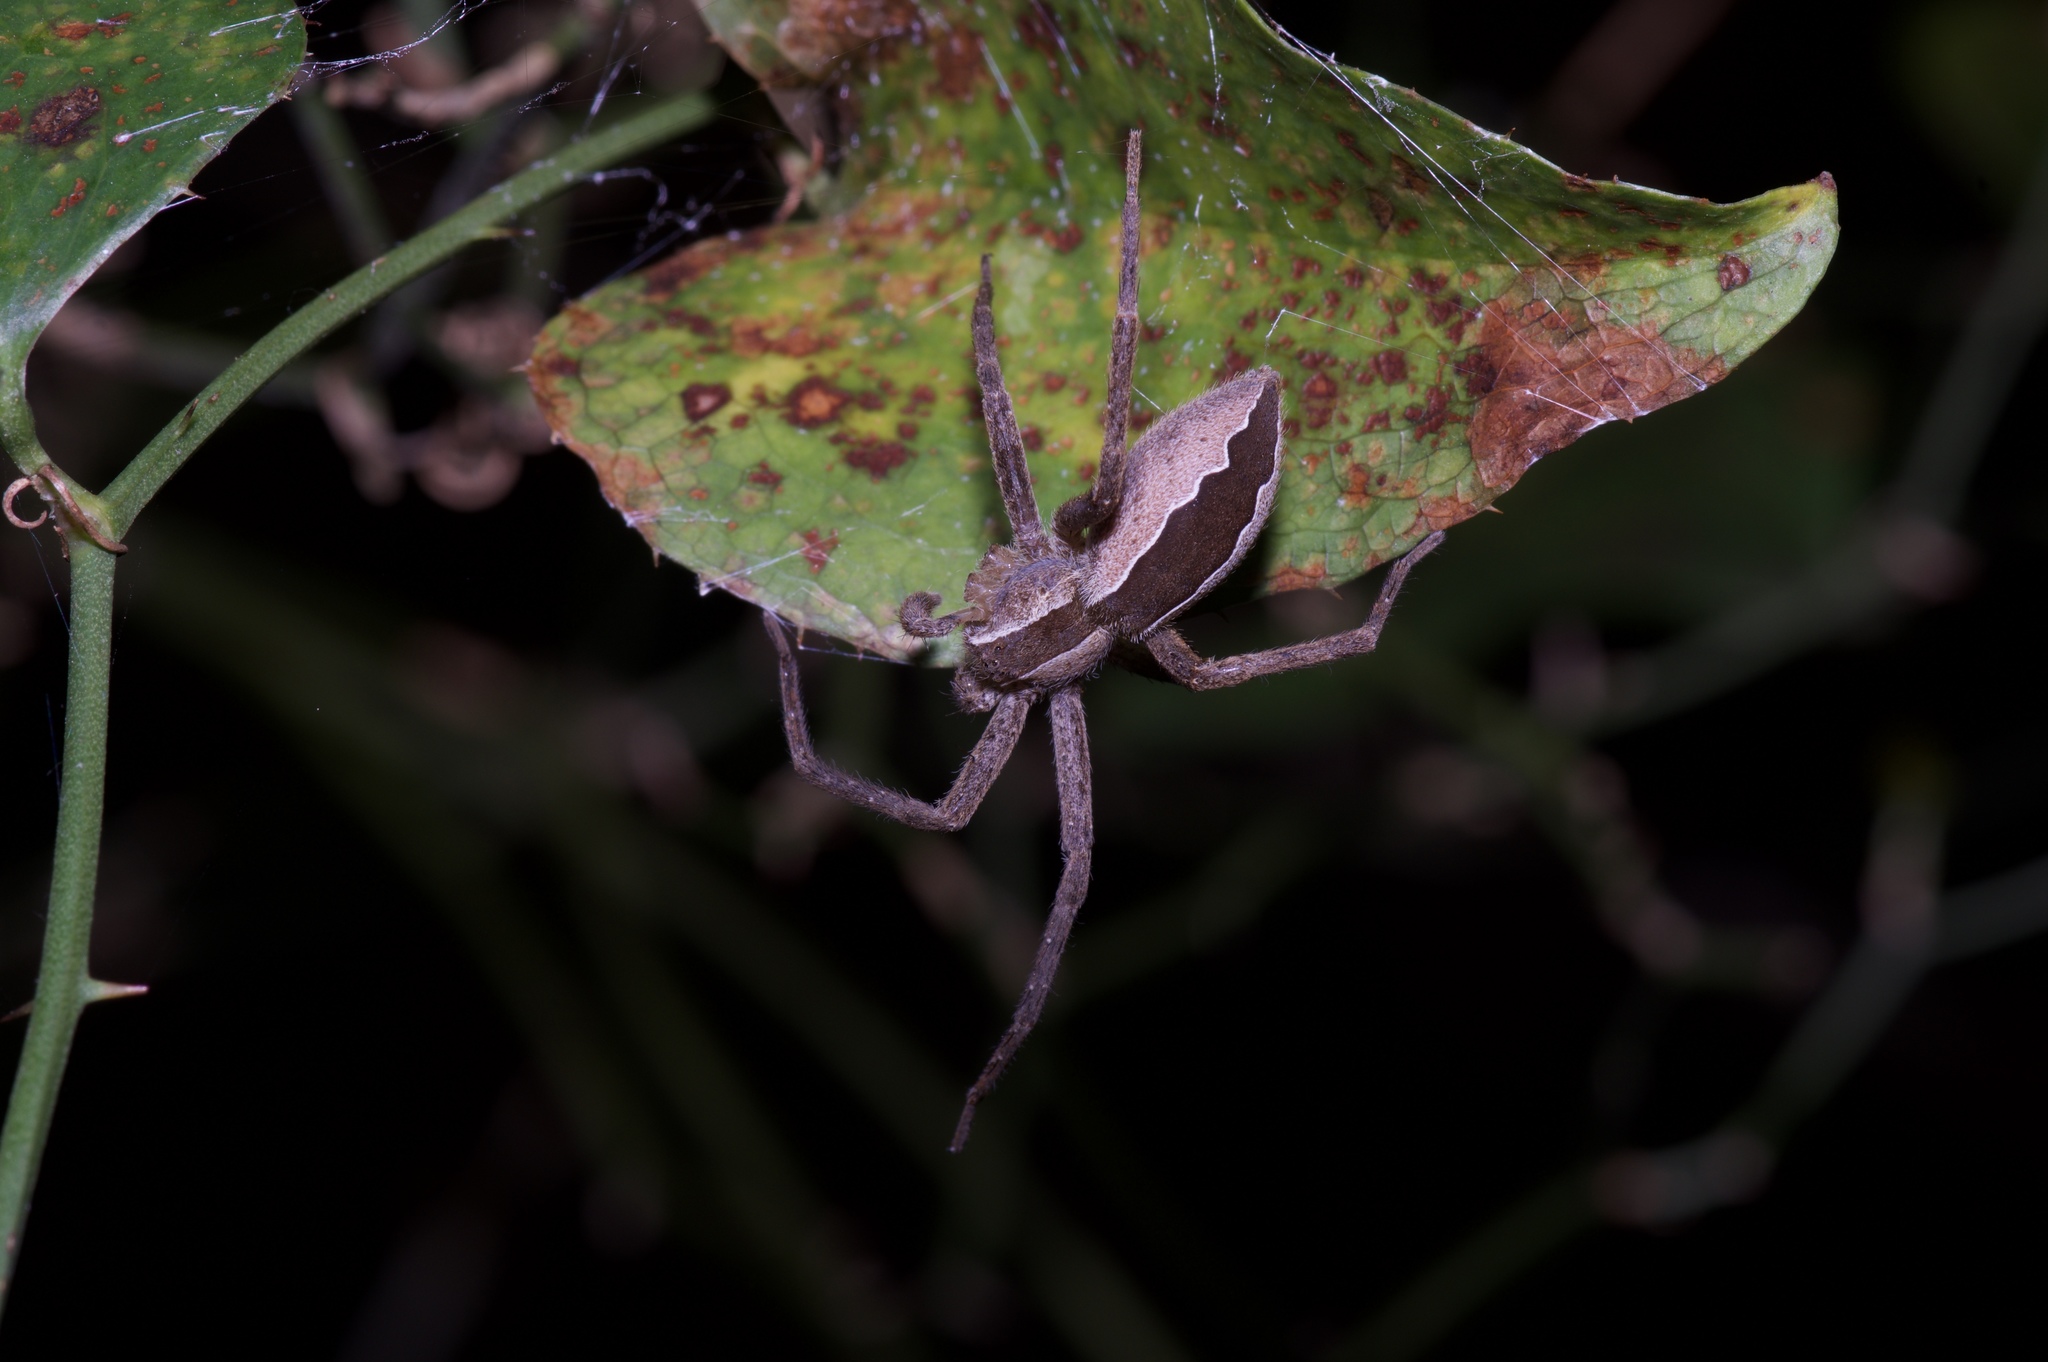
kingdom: Animalia
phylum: Arthropoda
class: Arachnida
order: Araneae
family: Pisauridae
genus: Pisaurina
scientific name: Pisaurina mira
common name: American nursery web spider
